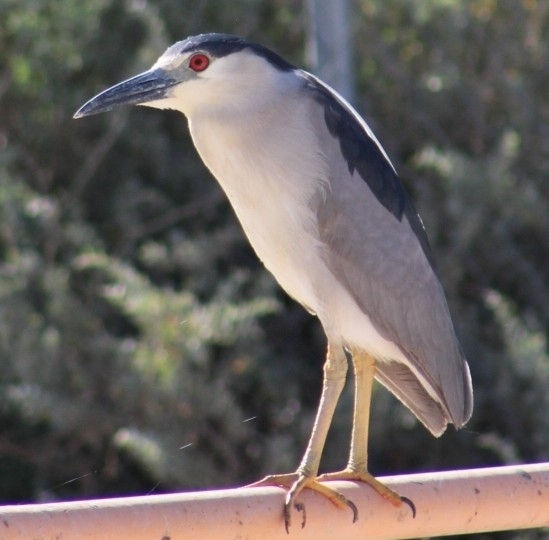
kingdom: Animalia
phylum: Chordata
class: Aves
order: Pelecaniformes
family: Ardeidae
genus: Nycticorax
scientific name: Nycticorax nycticorax
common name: Black-crowned night heron
